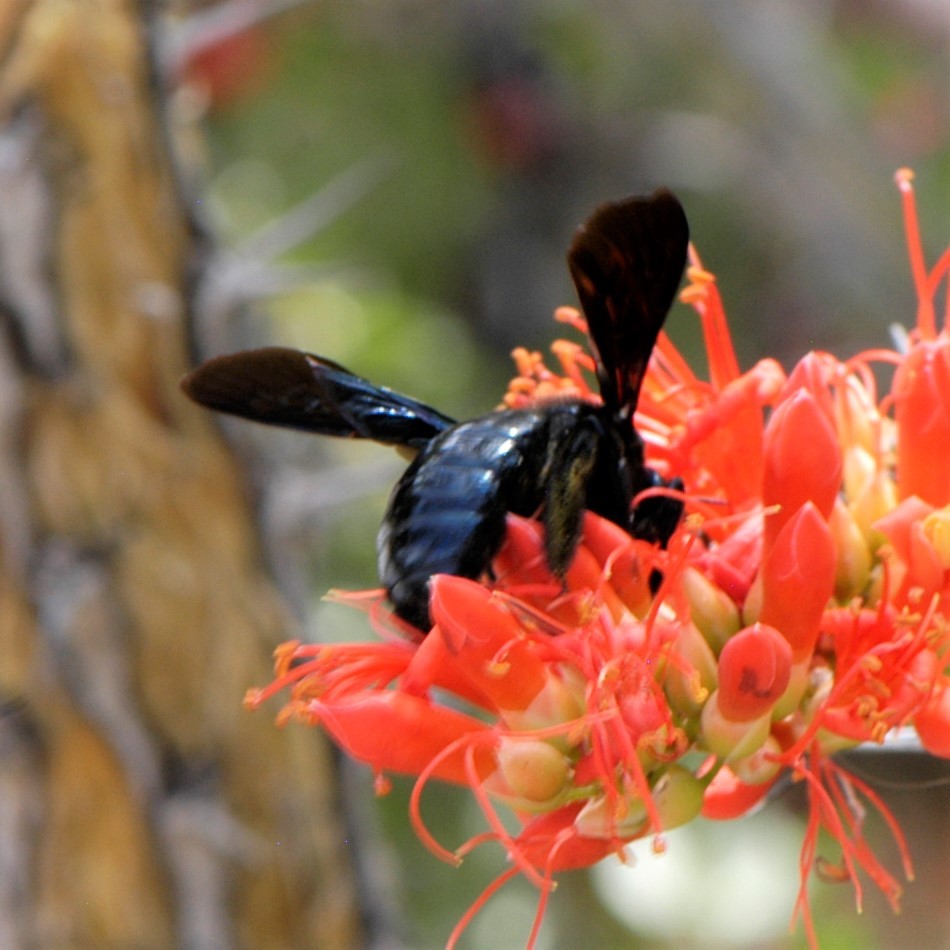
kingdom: Animalia
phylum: Arthropoda
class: Insecta
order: Hymenoptera
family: Apidae
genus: Xylocopa
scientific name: Xylocopa californica
